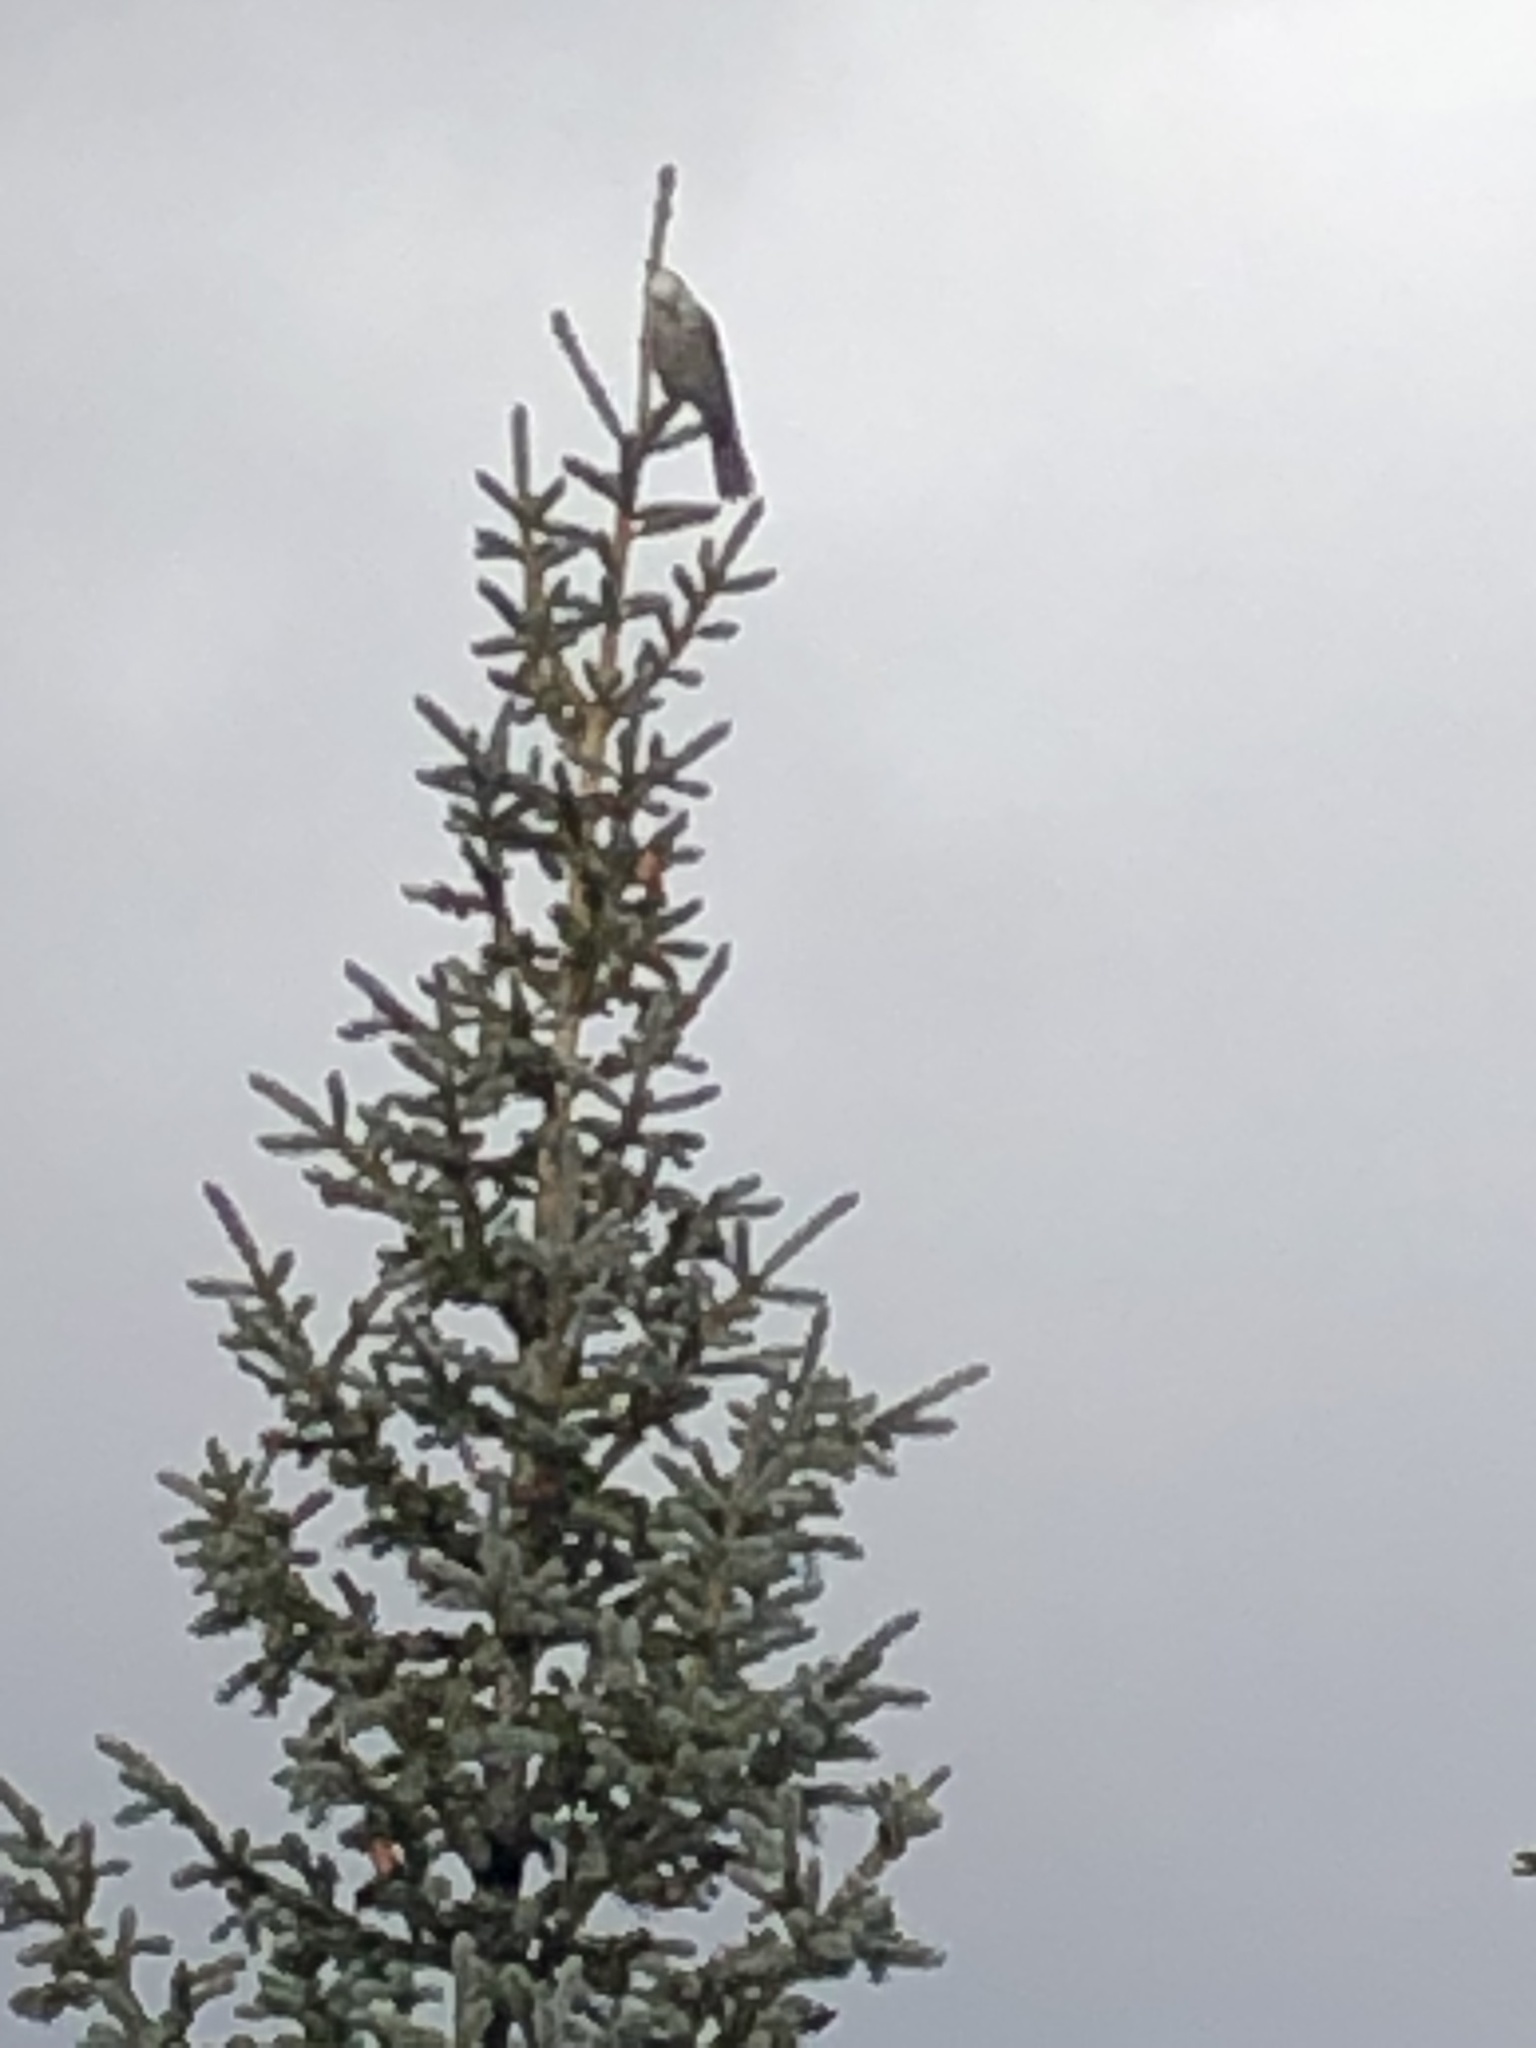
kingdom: Animalia
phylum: Chordata
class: Aves
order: Passeriformes
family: Corvidae
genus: Perisoreus
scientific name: Perisoreus canadensis
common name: Gray jay
